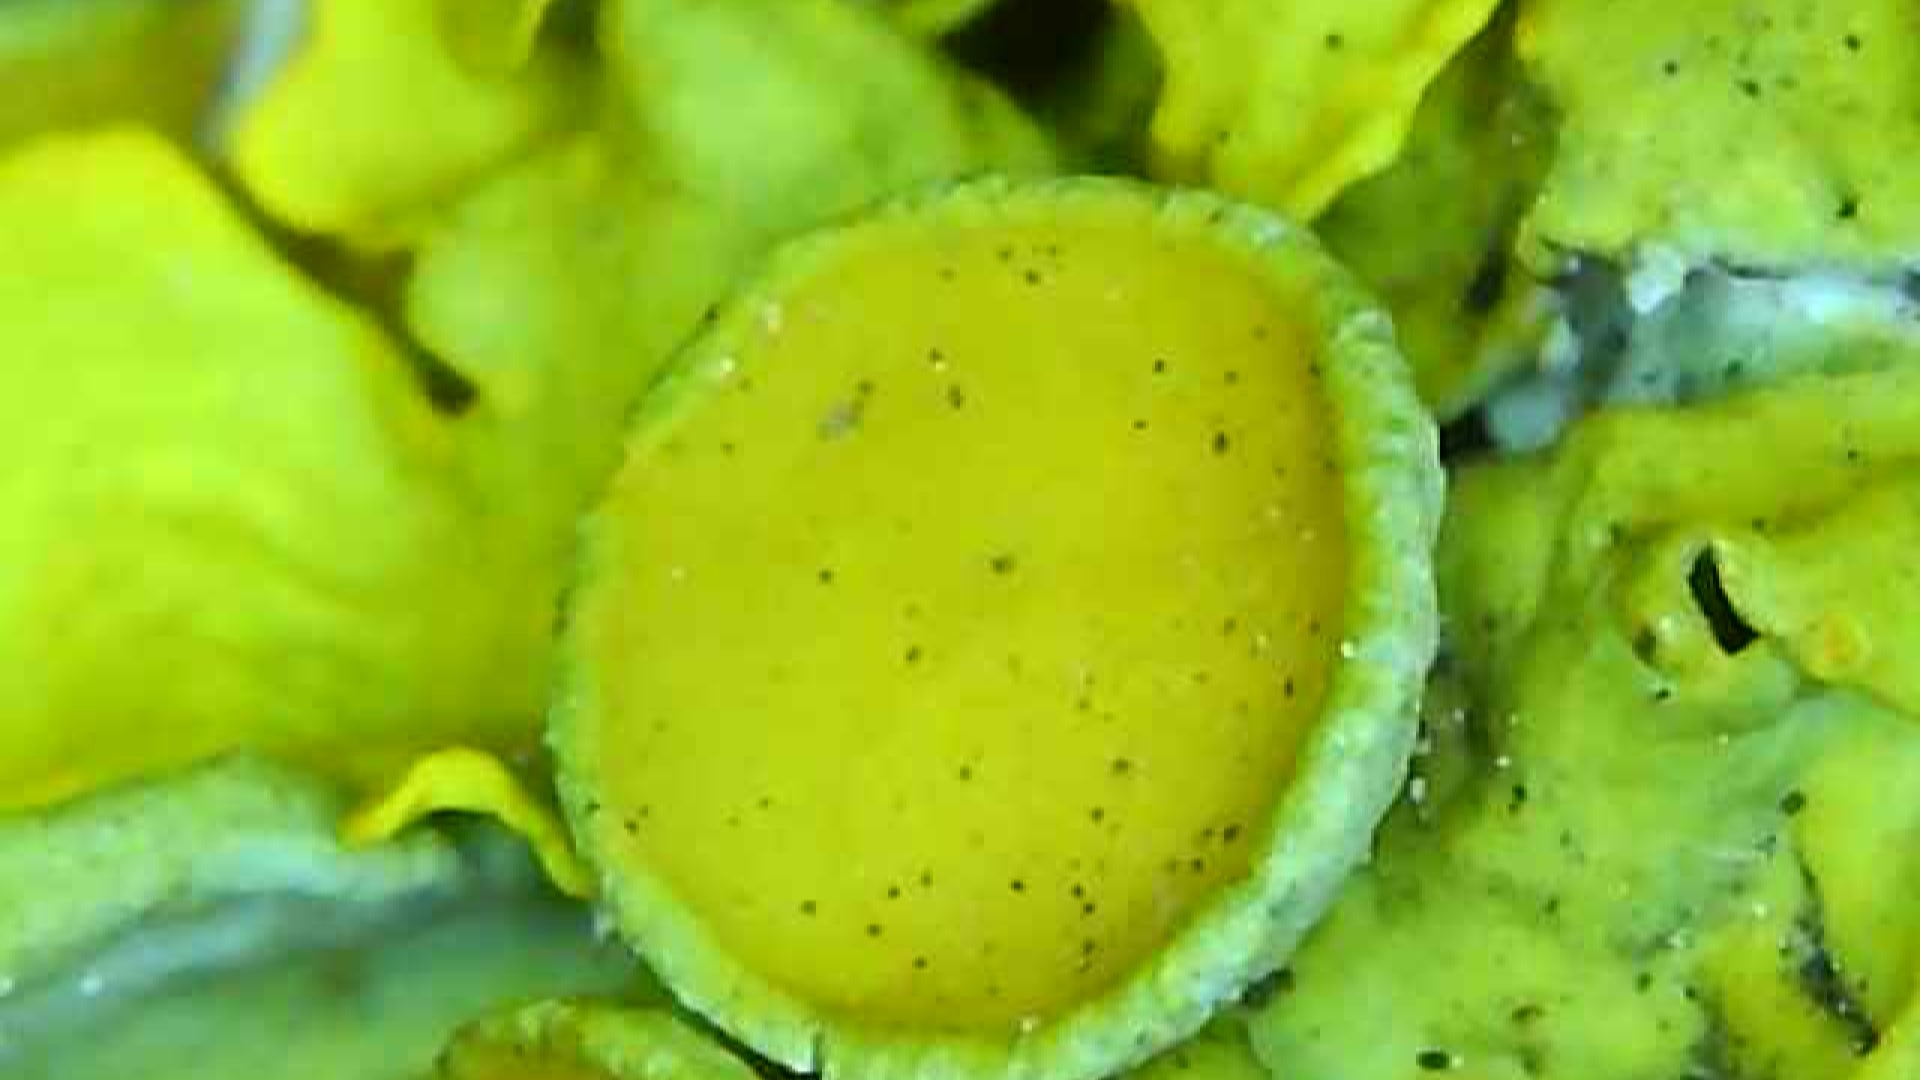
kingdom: Fungi
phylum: Ascomycota
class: Lecanoromycetes
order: Teloschistales
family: Teloschistaceae
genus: Xanthoria
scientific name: Xanthoria parietina
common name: Common orange lichen
